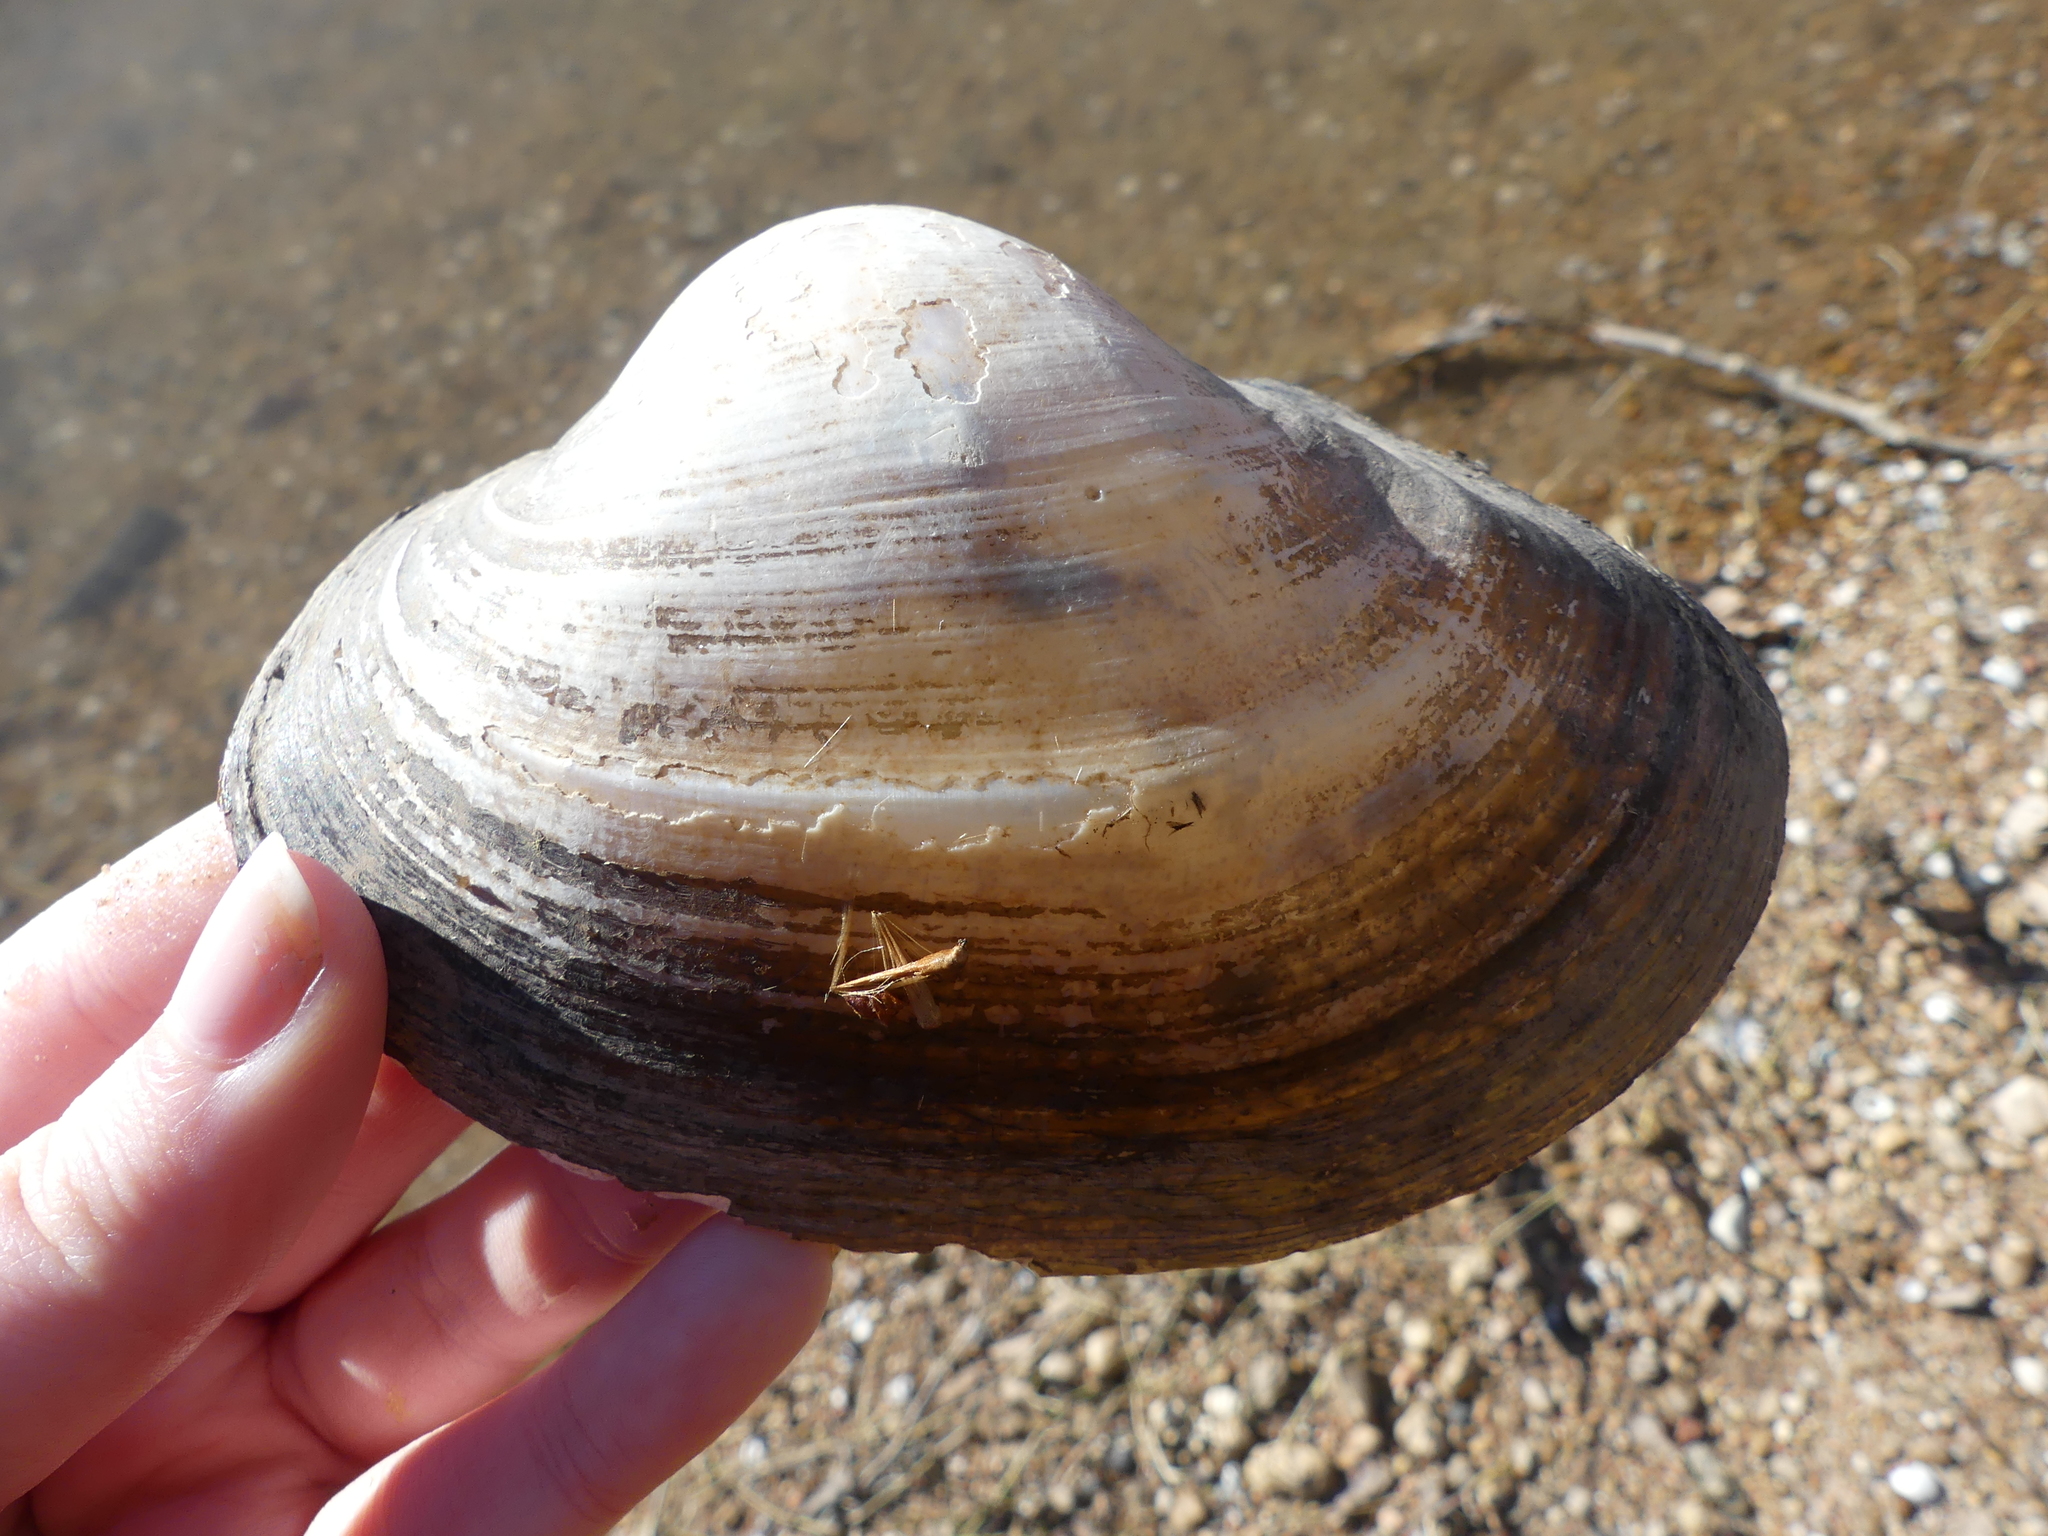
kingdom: Animalia
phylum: Mollusca
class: Bivalvia
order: Unionida
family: Unionidae
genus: Pyganodon
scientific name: Pyganodon grandis
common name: Giant floater
